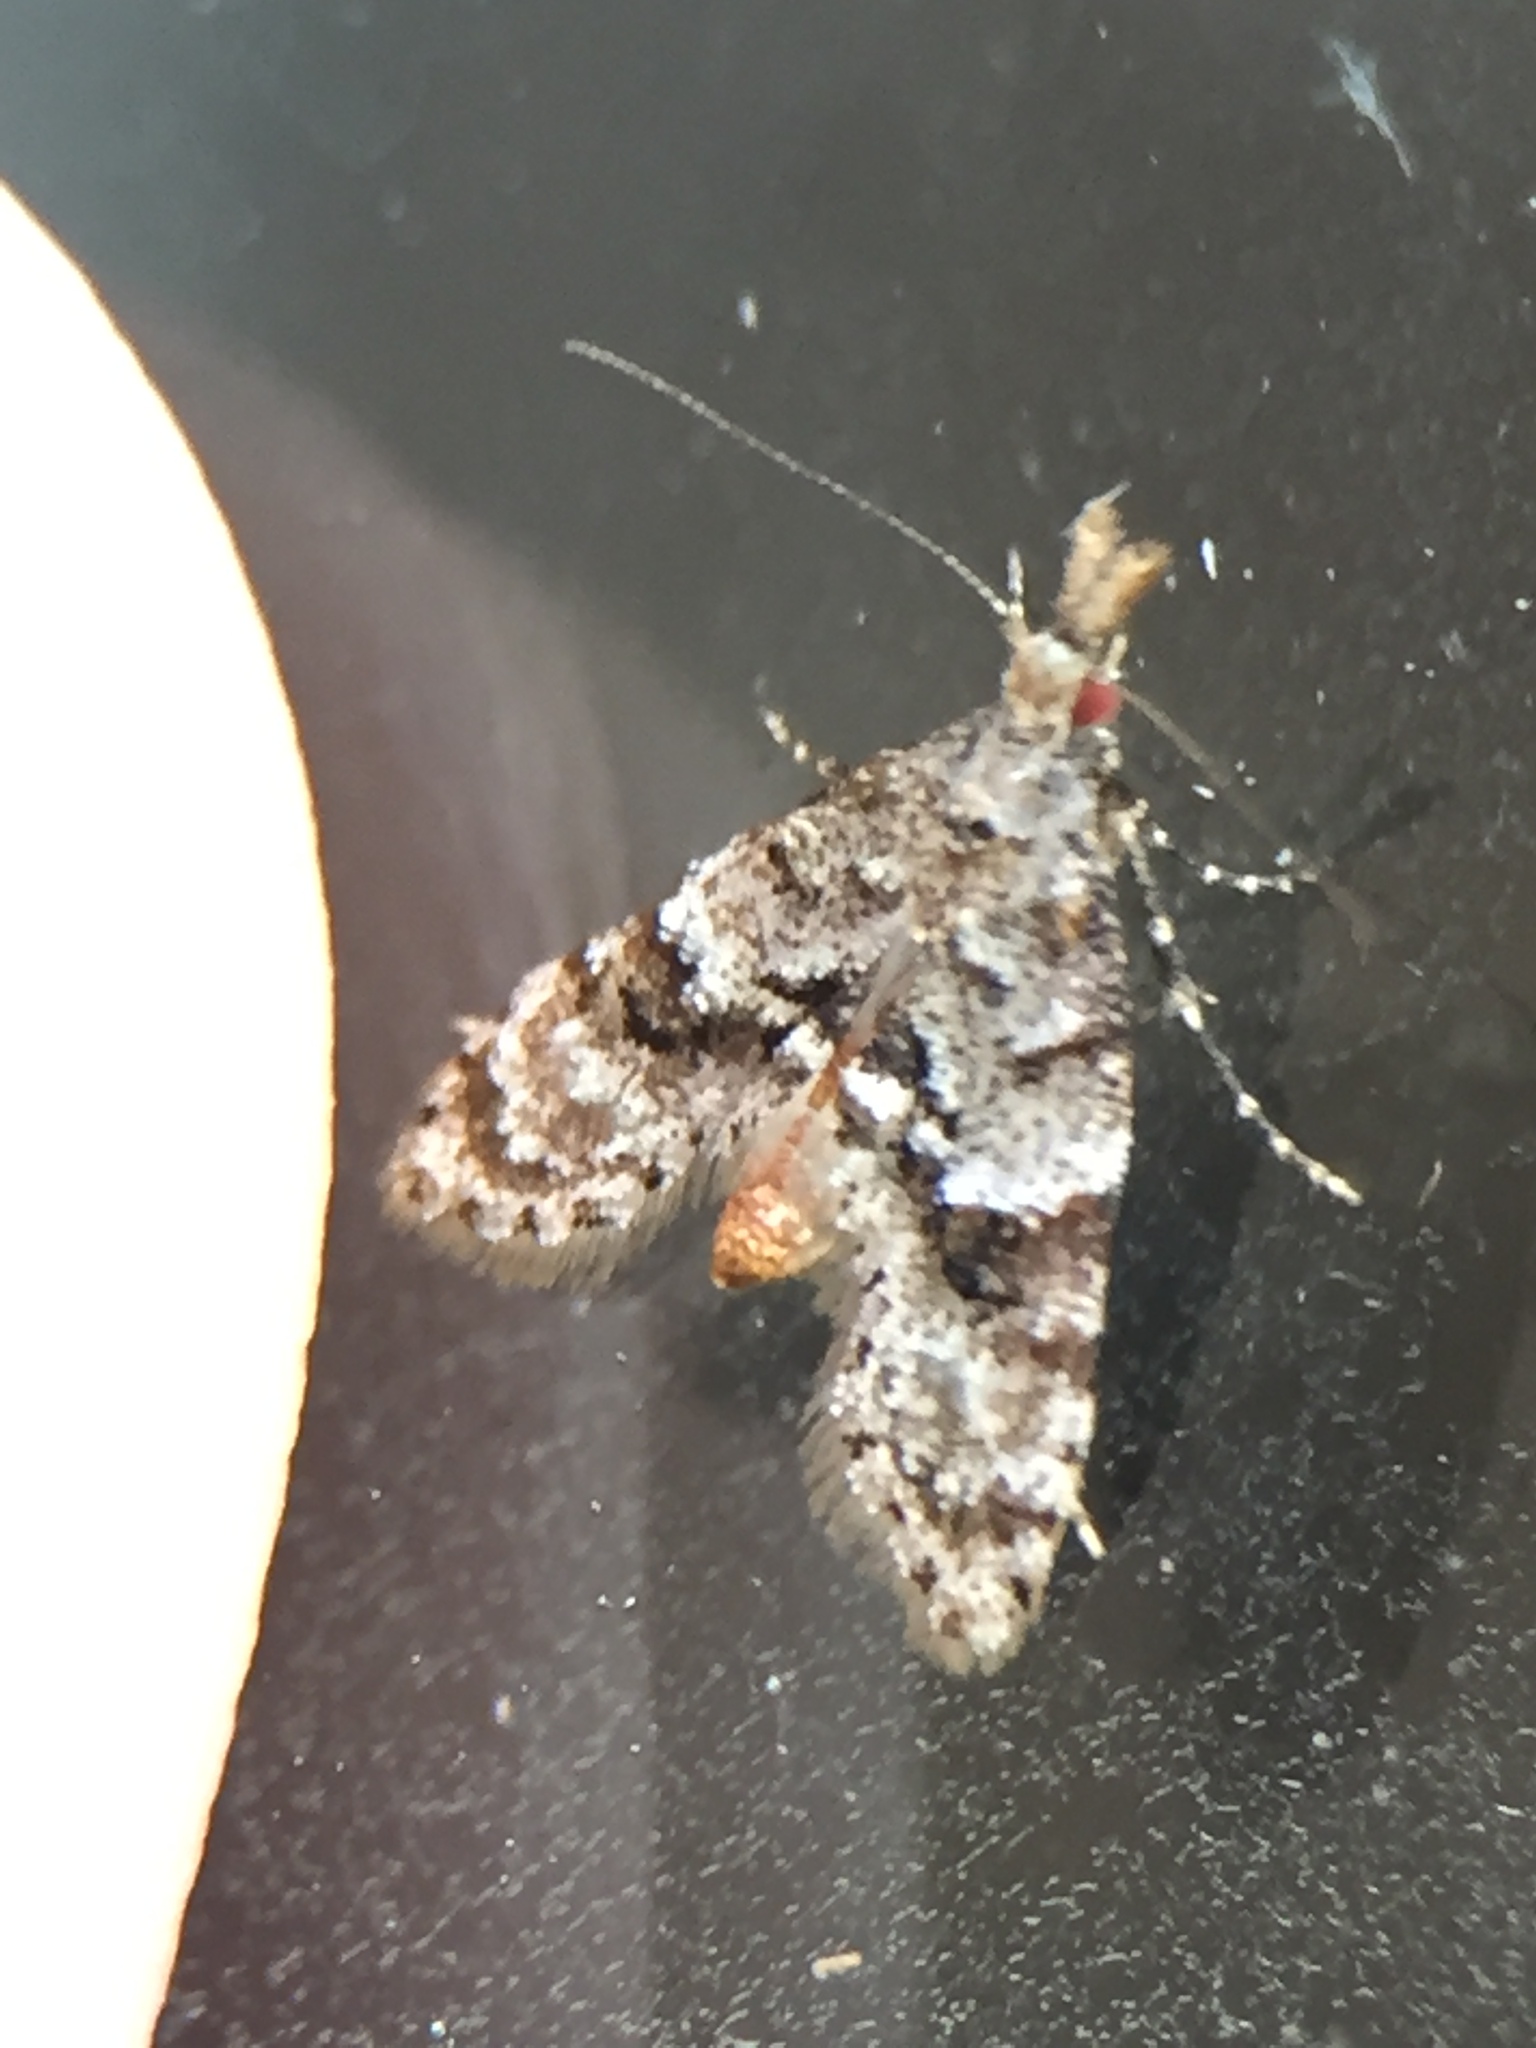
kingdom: Animalia
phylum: Arthropoda
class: Insecta
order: Lepidoptera
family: Copromorphidae
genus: Isonomeutis
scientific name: Isonomeutis restincta
